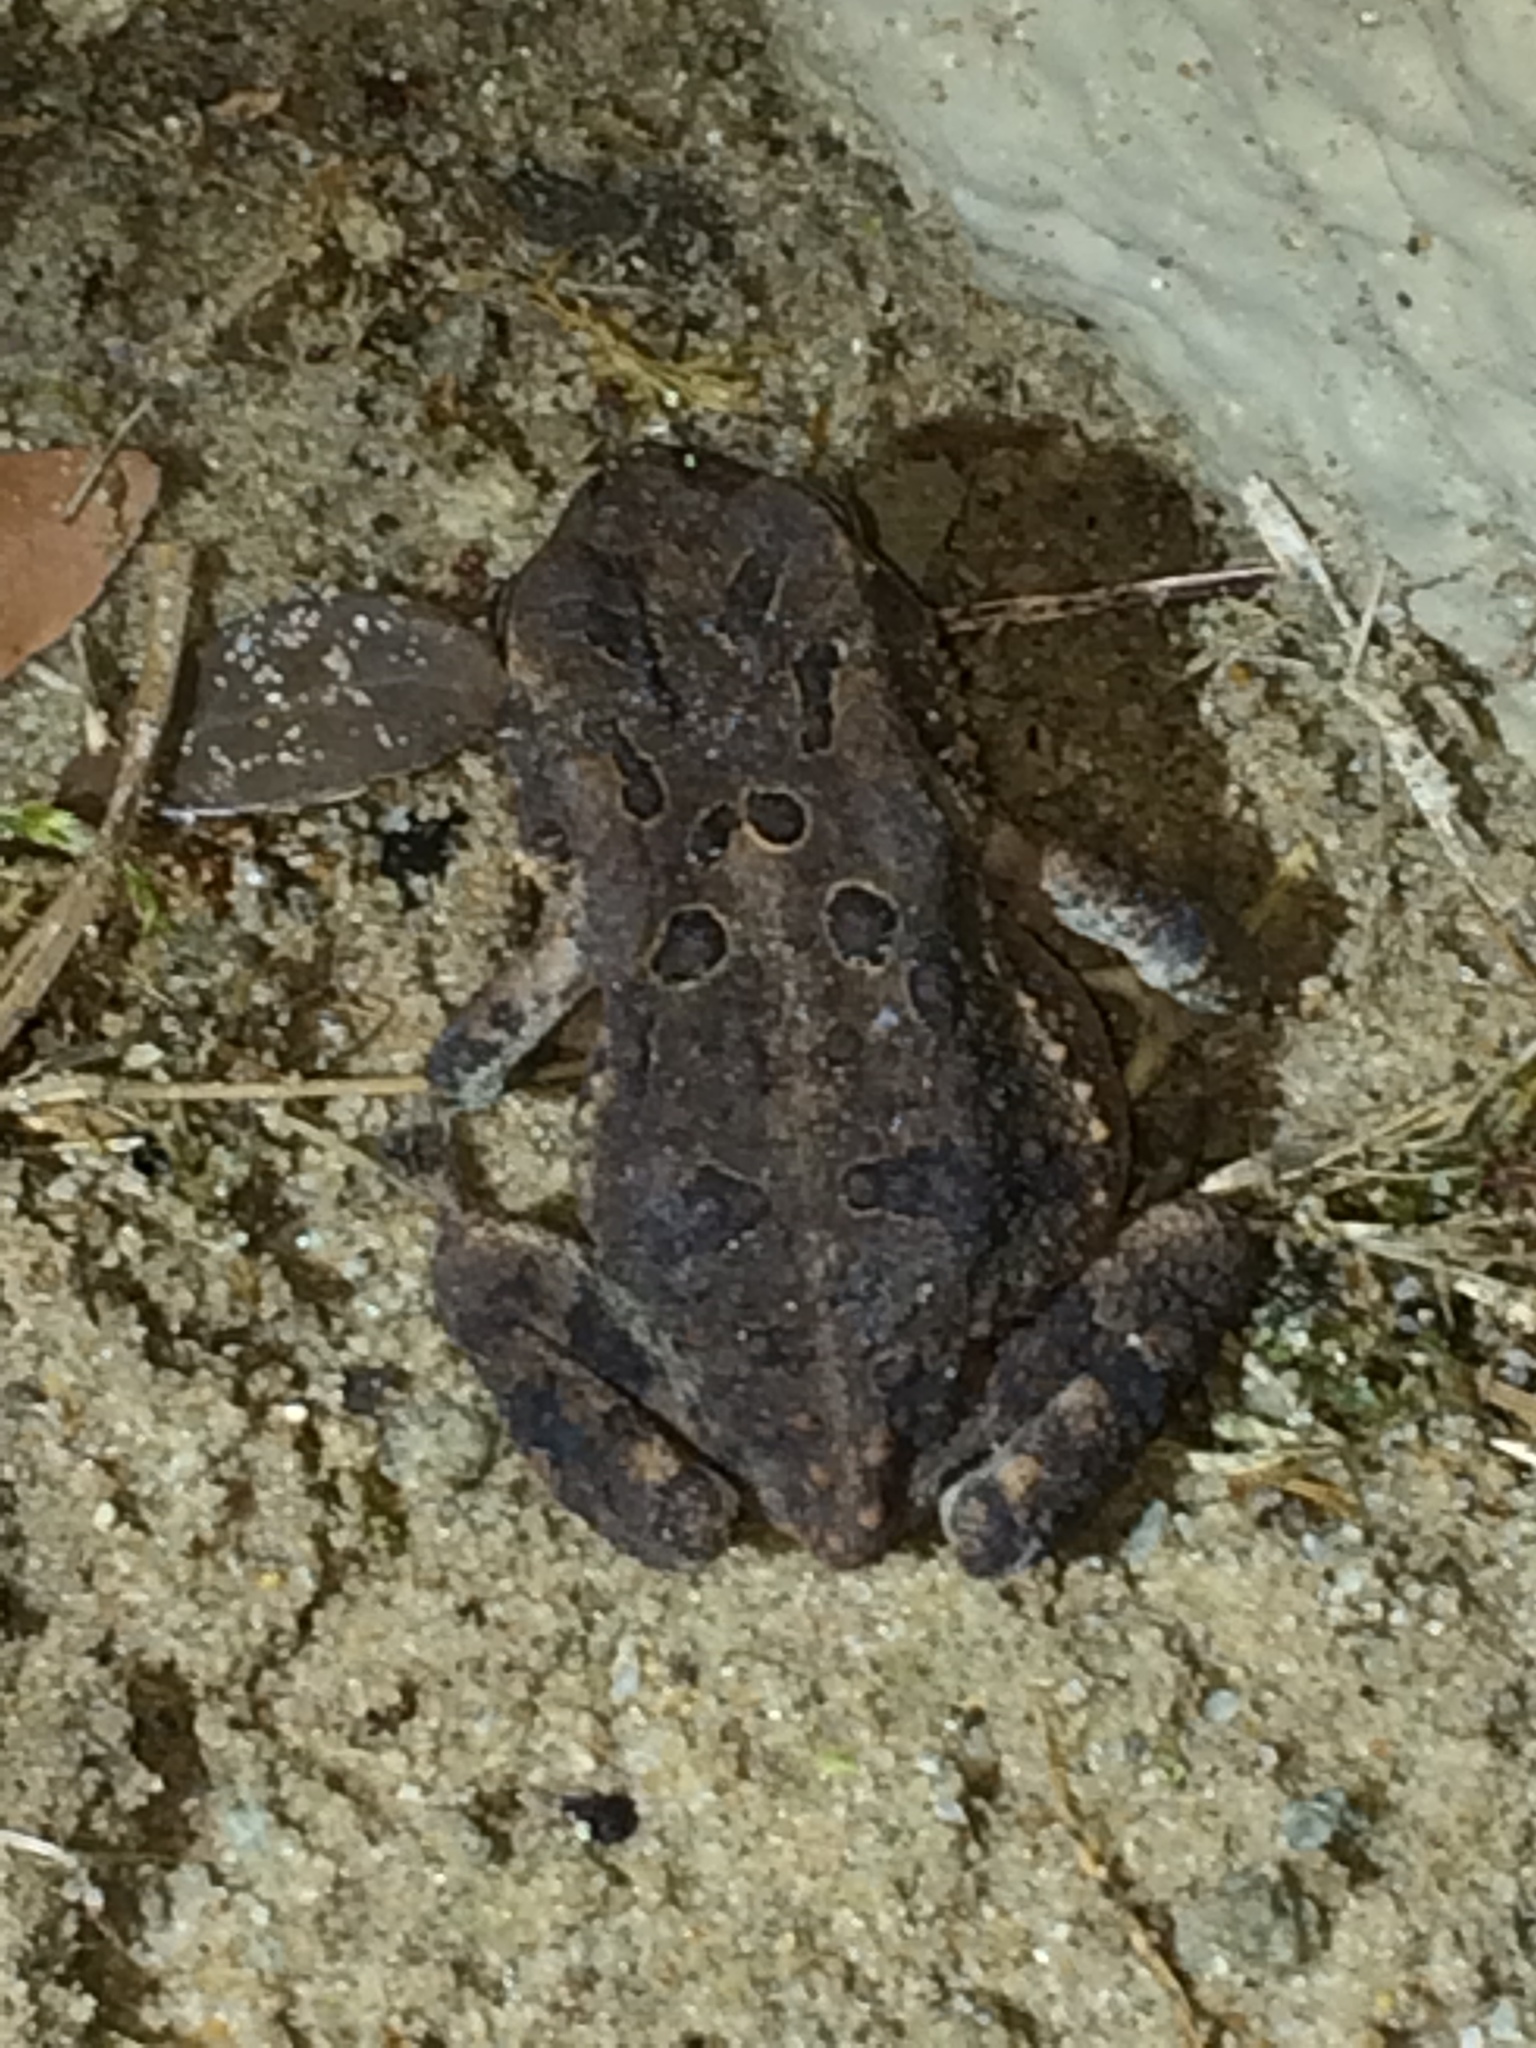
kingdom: Animalia
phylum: Chordata
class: Amphibia
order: Anura
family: Bufonidae
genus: Anaxyrus
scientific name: Anaxyrus terrestris
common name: Southern toad
